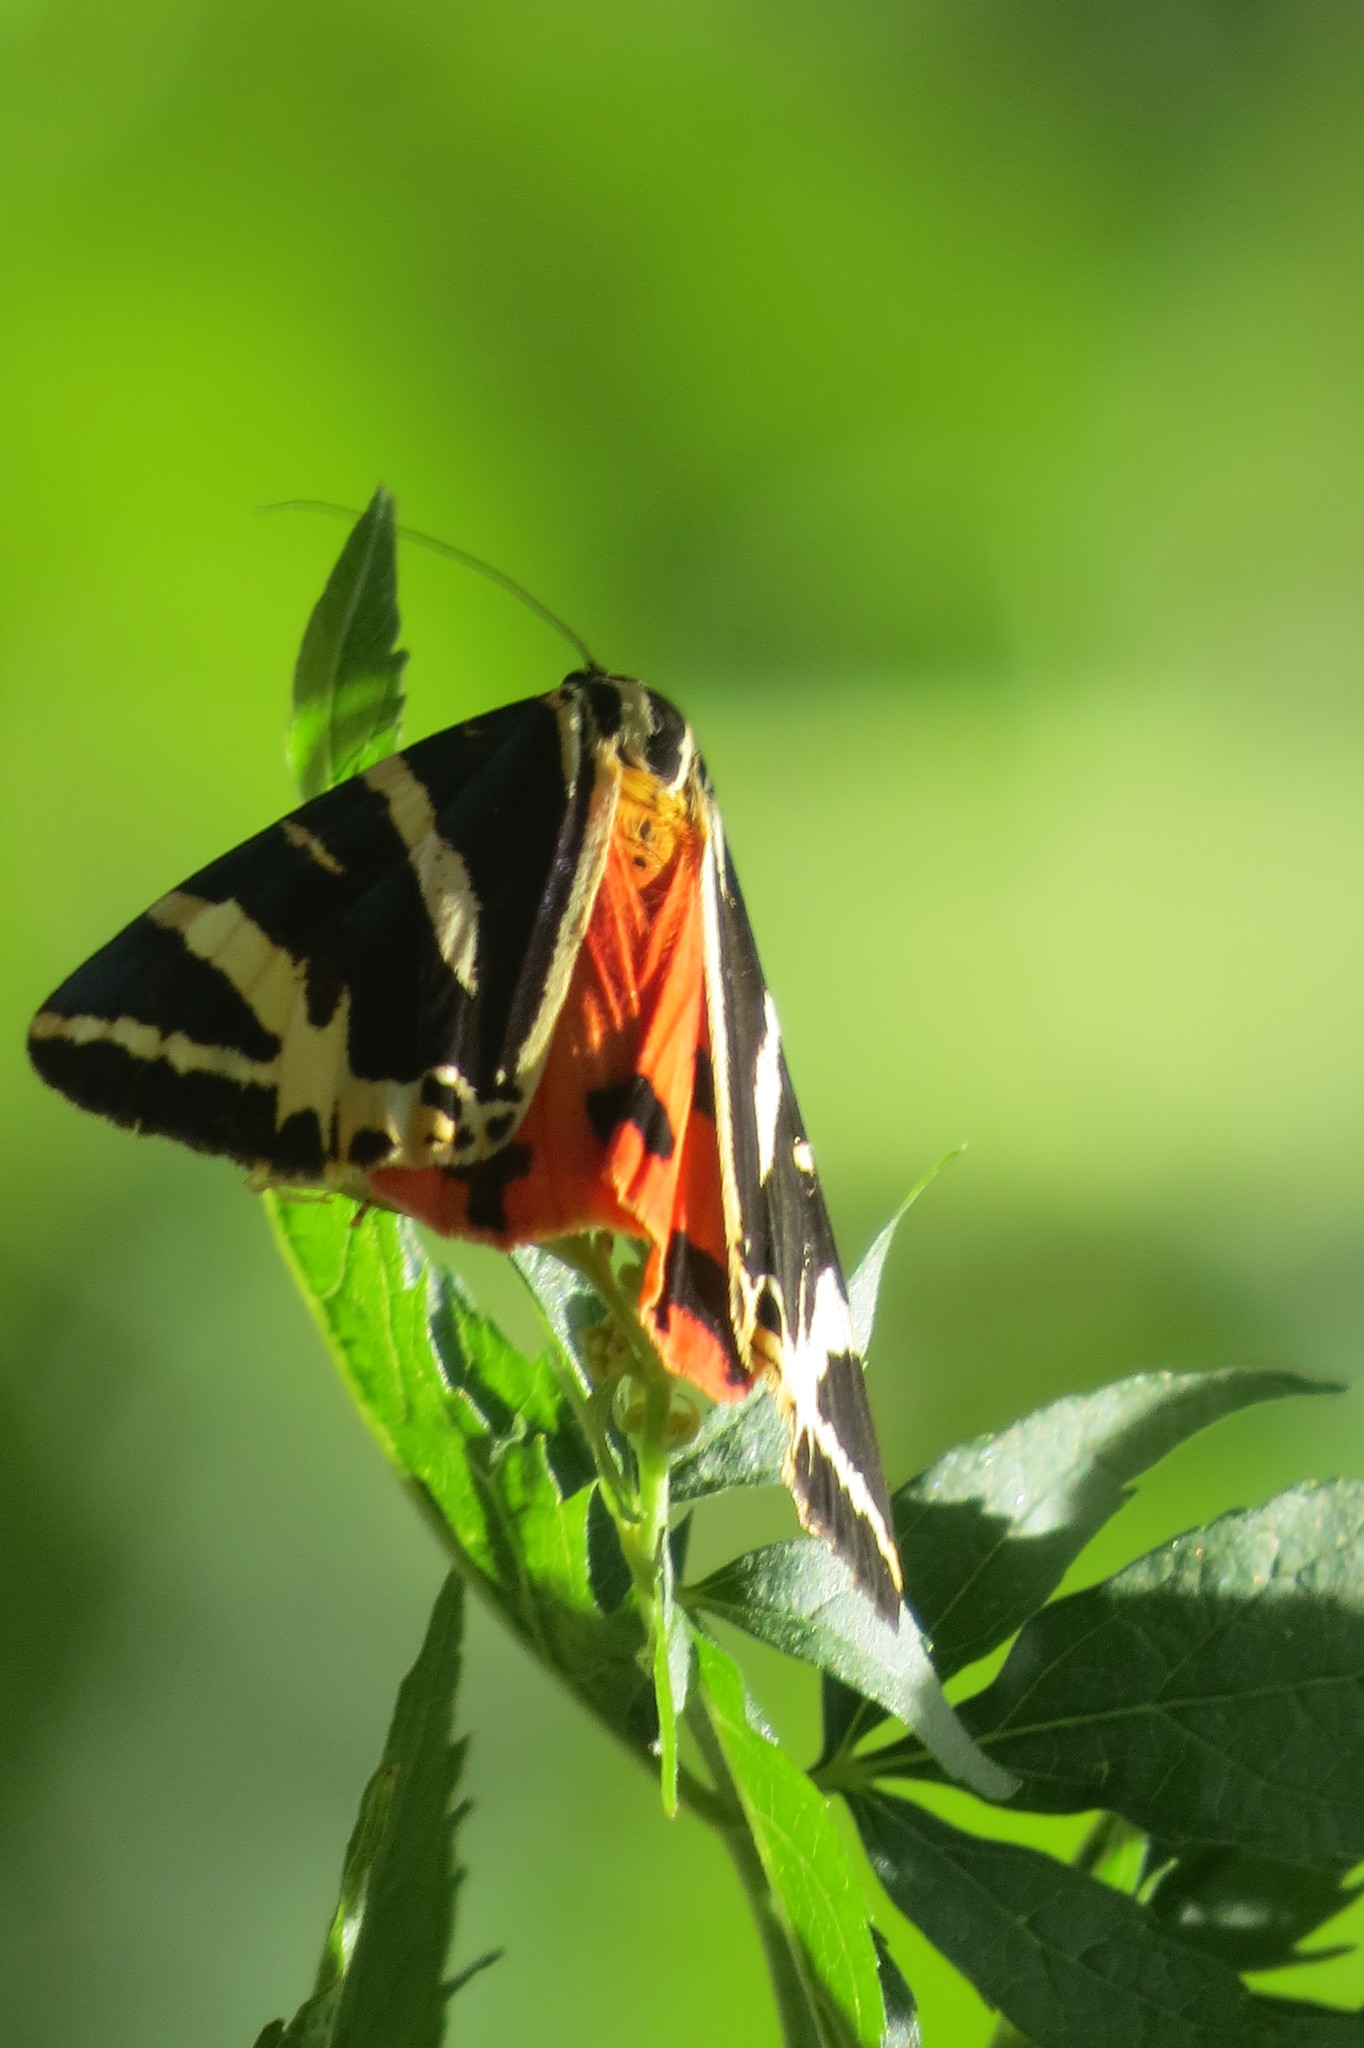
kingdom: Animalia
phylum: Arthropoda
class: Insecta
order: Lepidoptera
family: Erebidae
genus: Euplagia
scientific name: Euplagia quadripunctaria
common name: Jersey tiger
